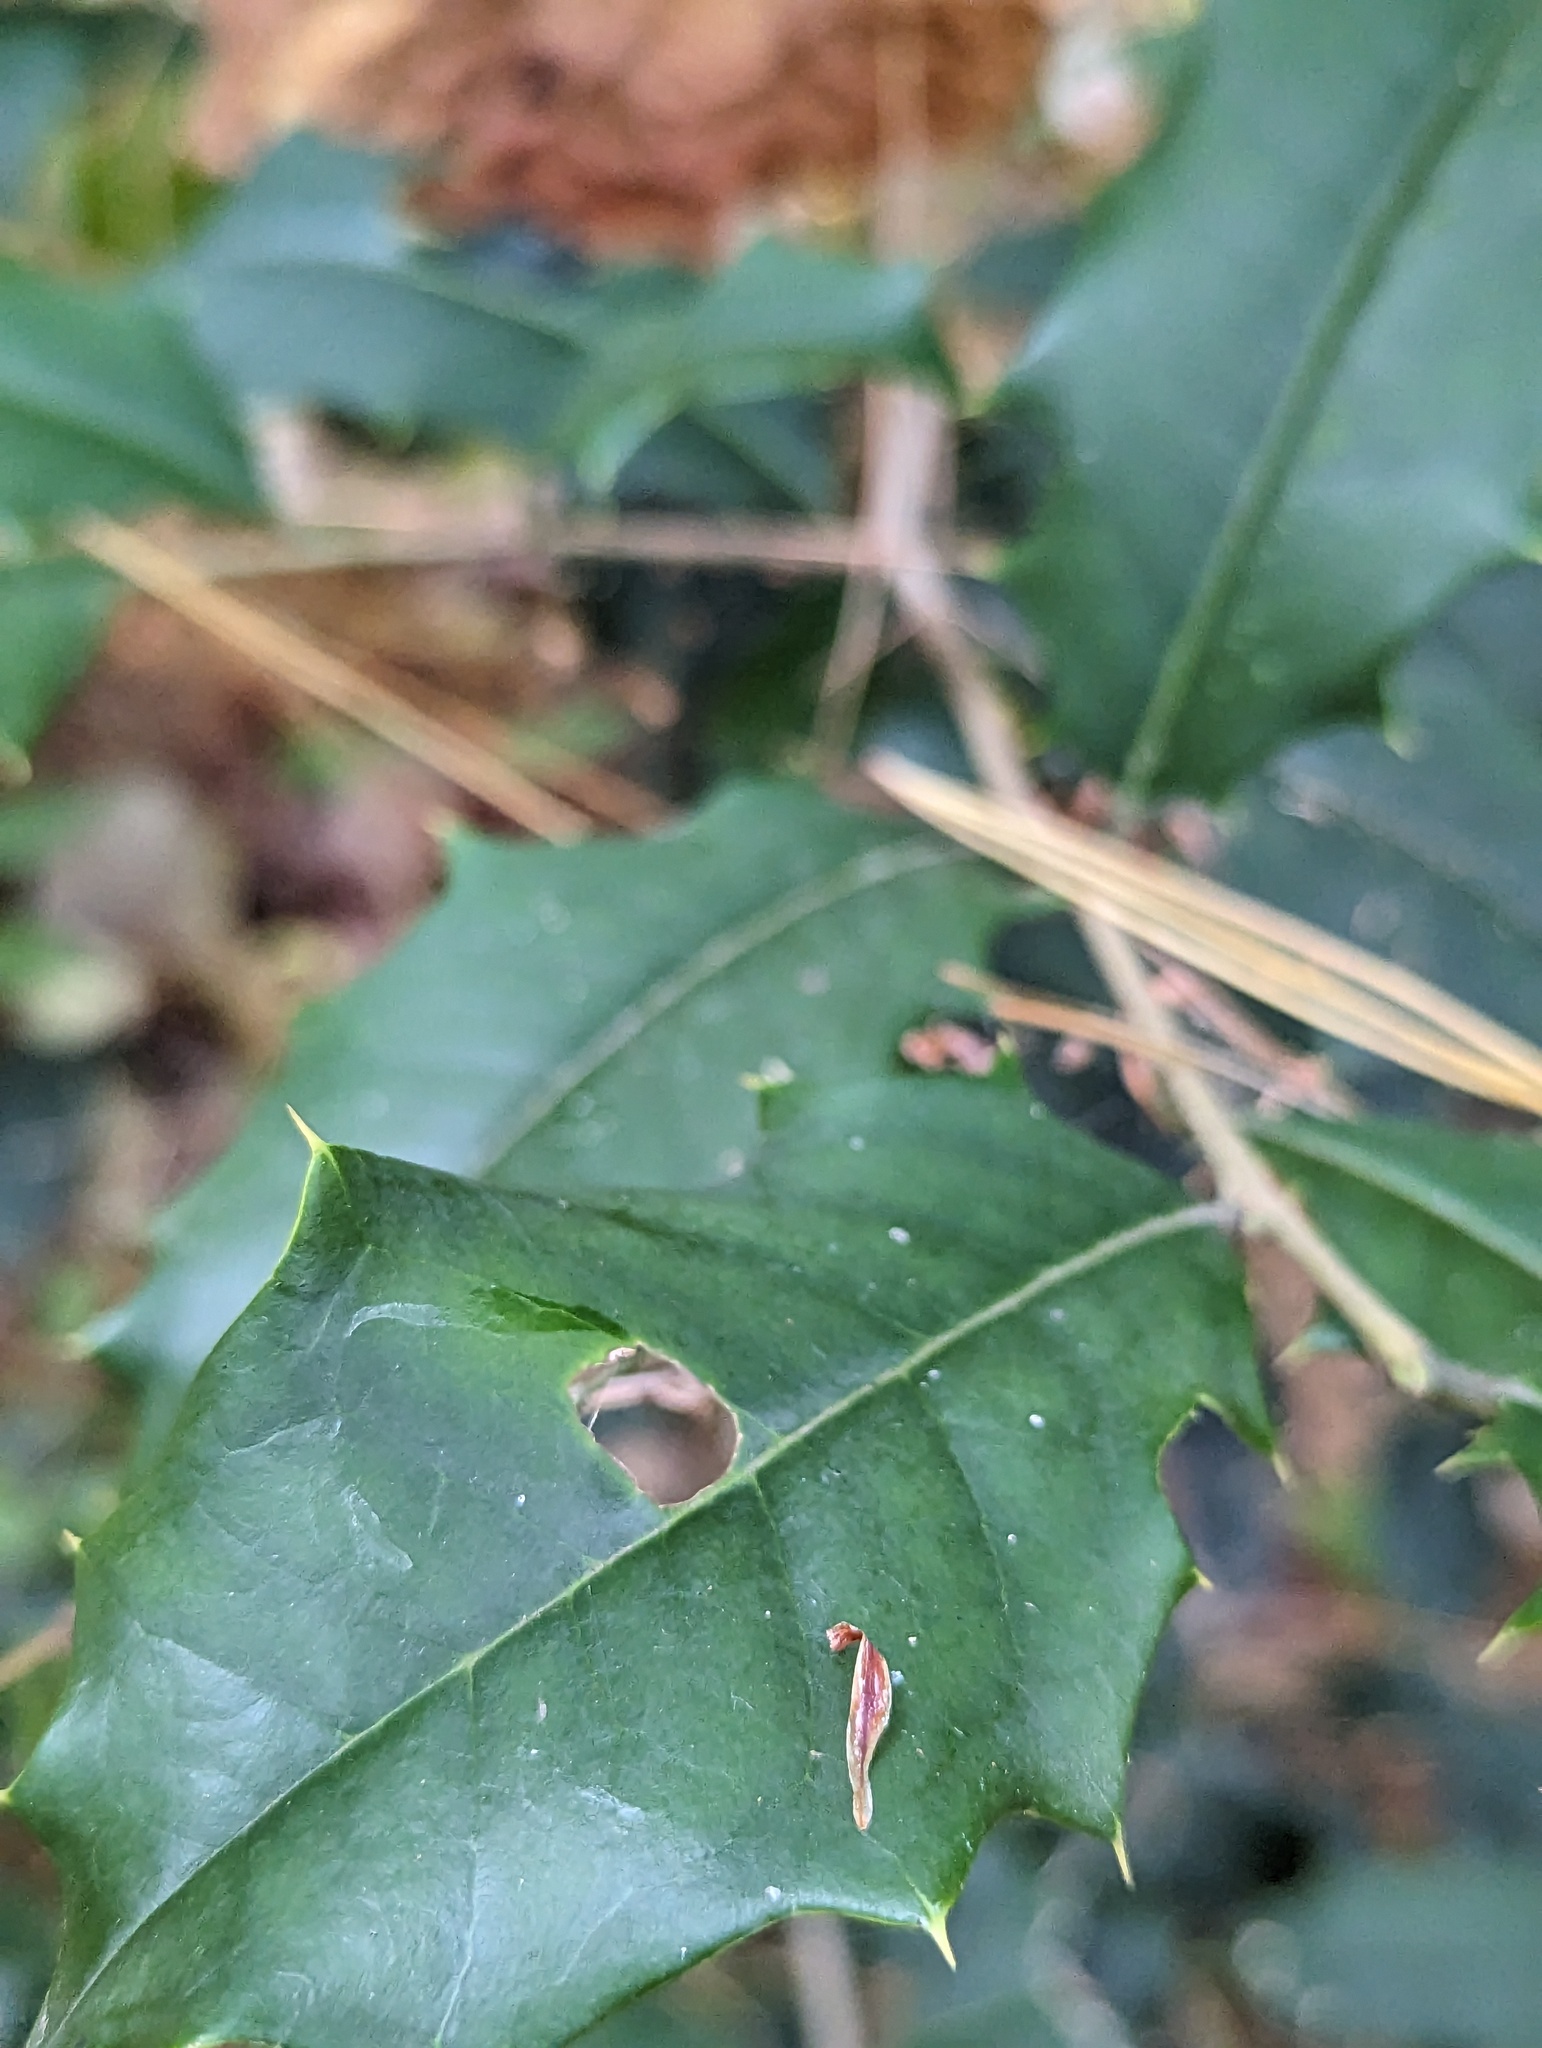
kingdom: Plantae
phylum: Tracheophyta
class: Magnoliopsida
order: Aquifoliales
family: Aquifoliaceae
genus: Ilex
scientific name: Ilex opaca
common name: American holly
